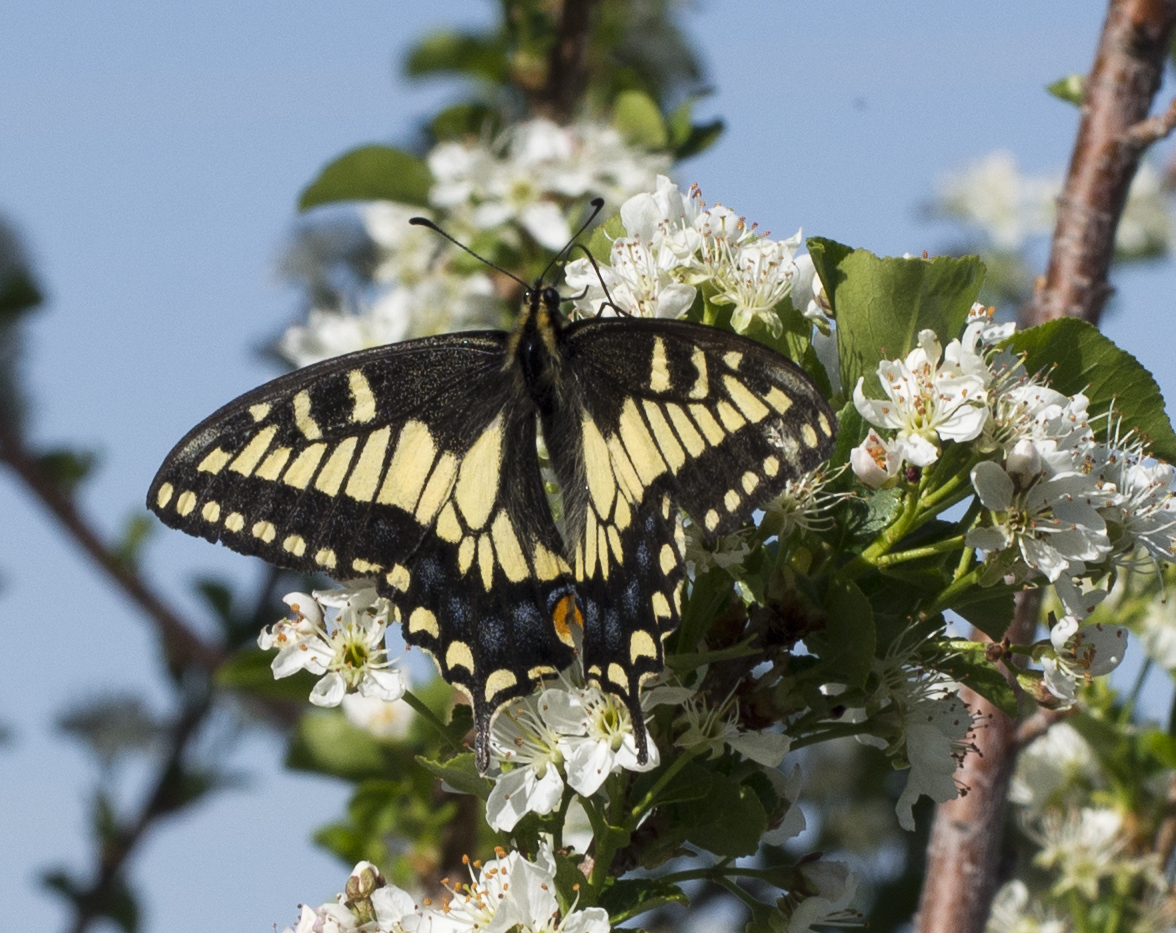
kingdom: Animalia
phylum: Arthropoda
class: Insecta
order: Lepidoptera
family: Papilionidae
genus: Papilio
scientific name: Papilio zelicaon
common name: Anise swallowtail
